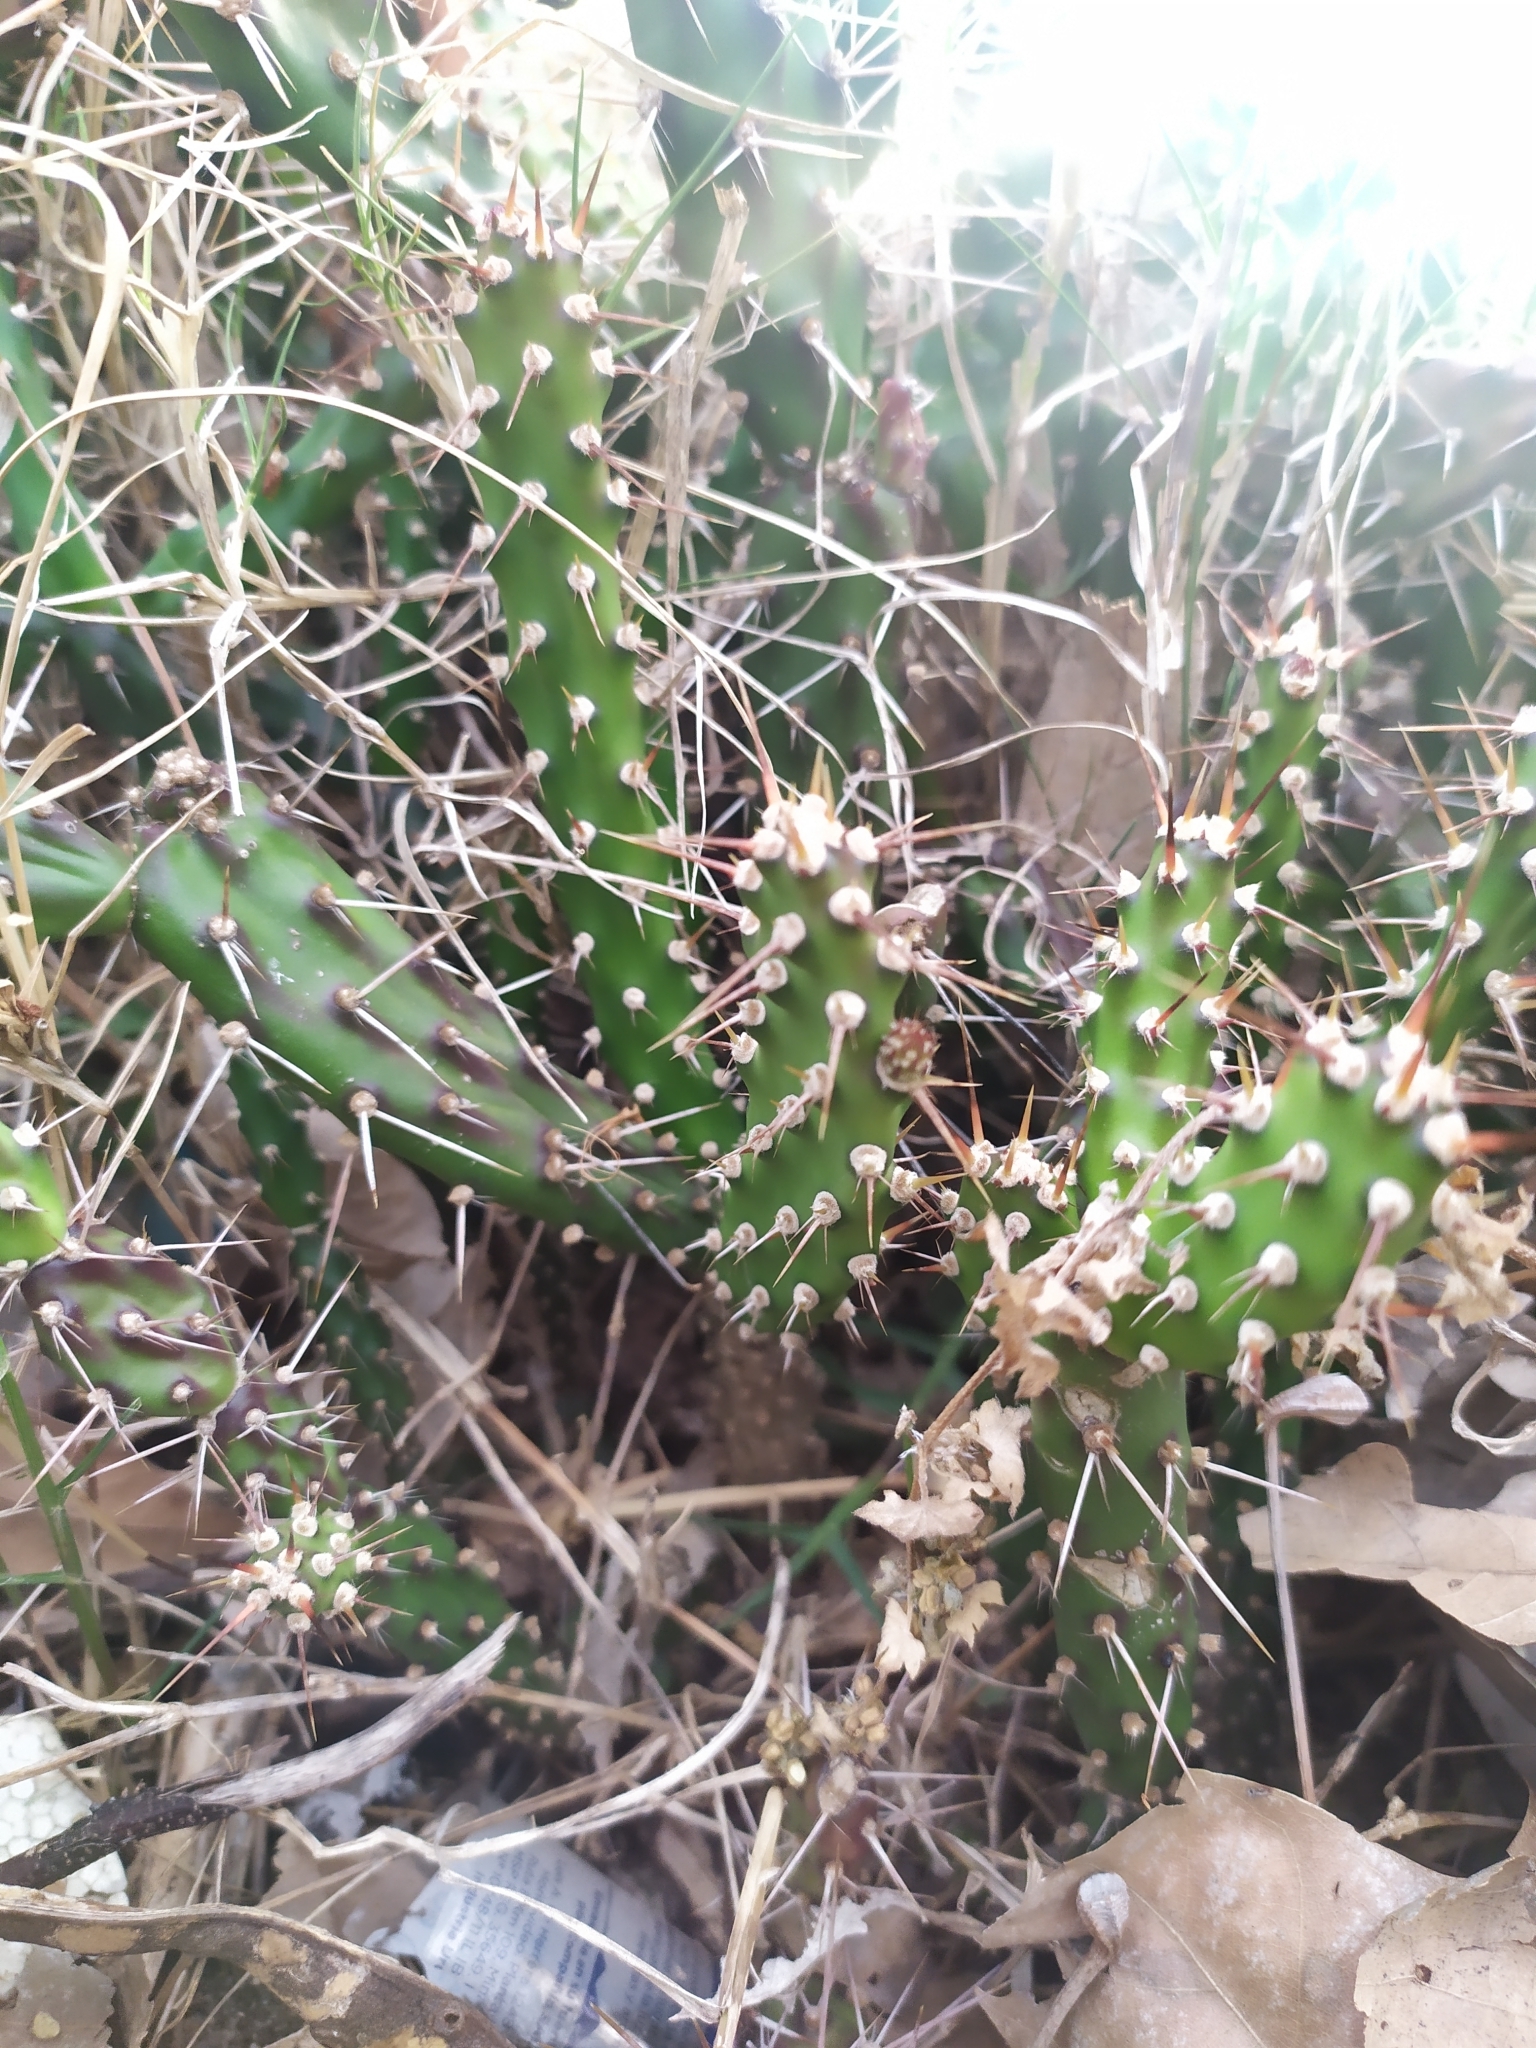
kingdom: Plantae
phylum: Tracheophyta
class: Magnoliopsida
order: Caryophyllales
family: Cactaceae
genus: Opuntia
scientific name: Opuntia aurantiaca
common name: Jointed pricklypear
